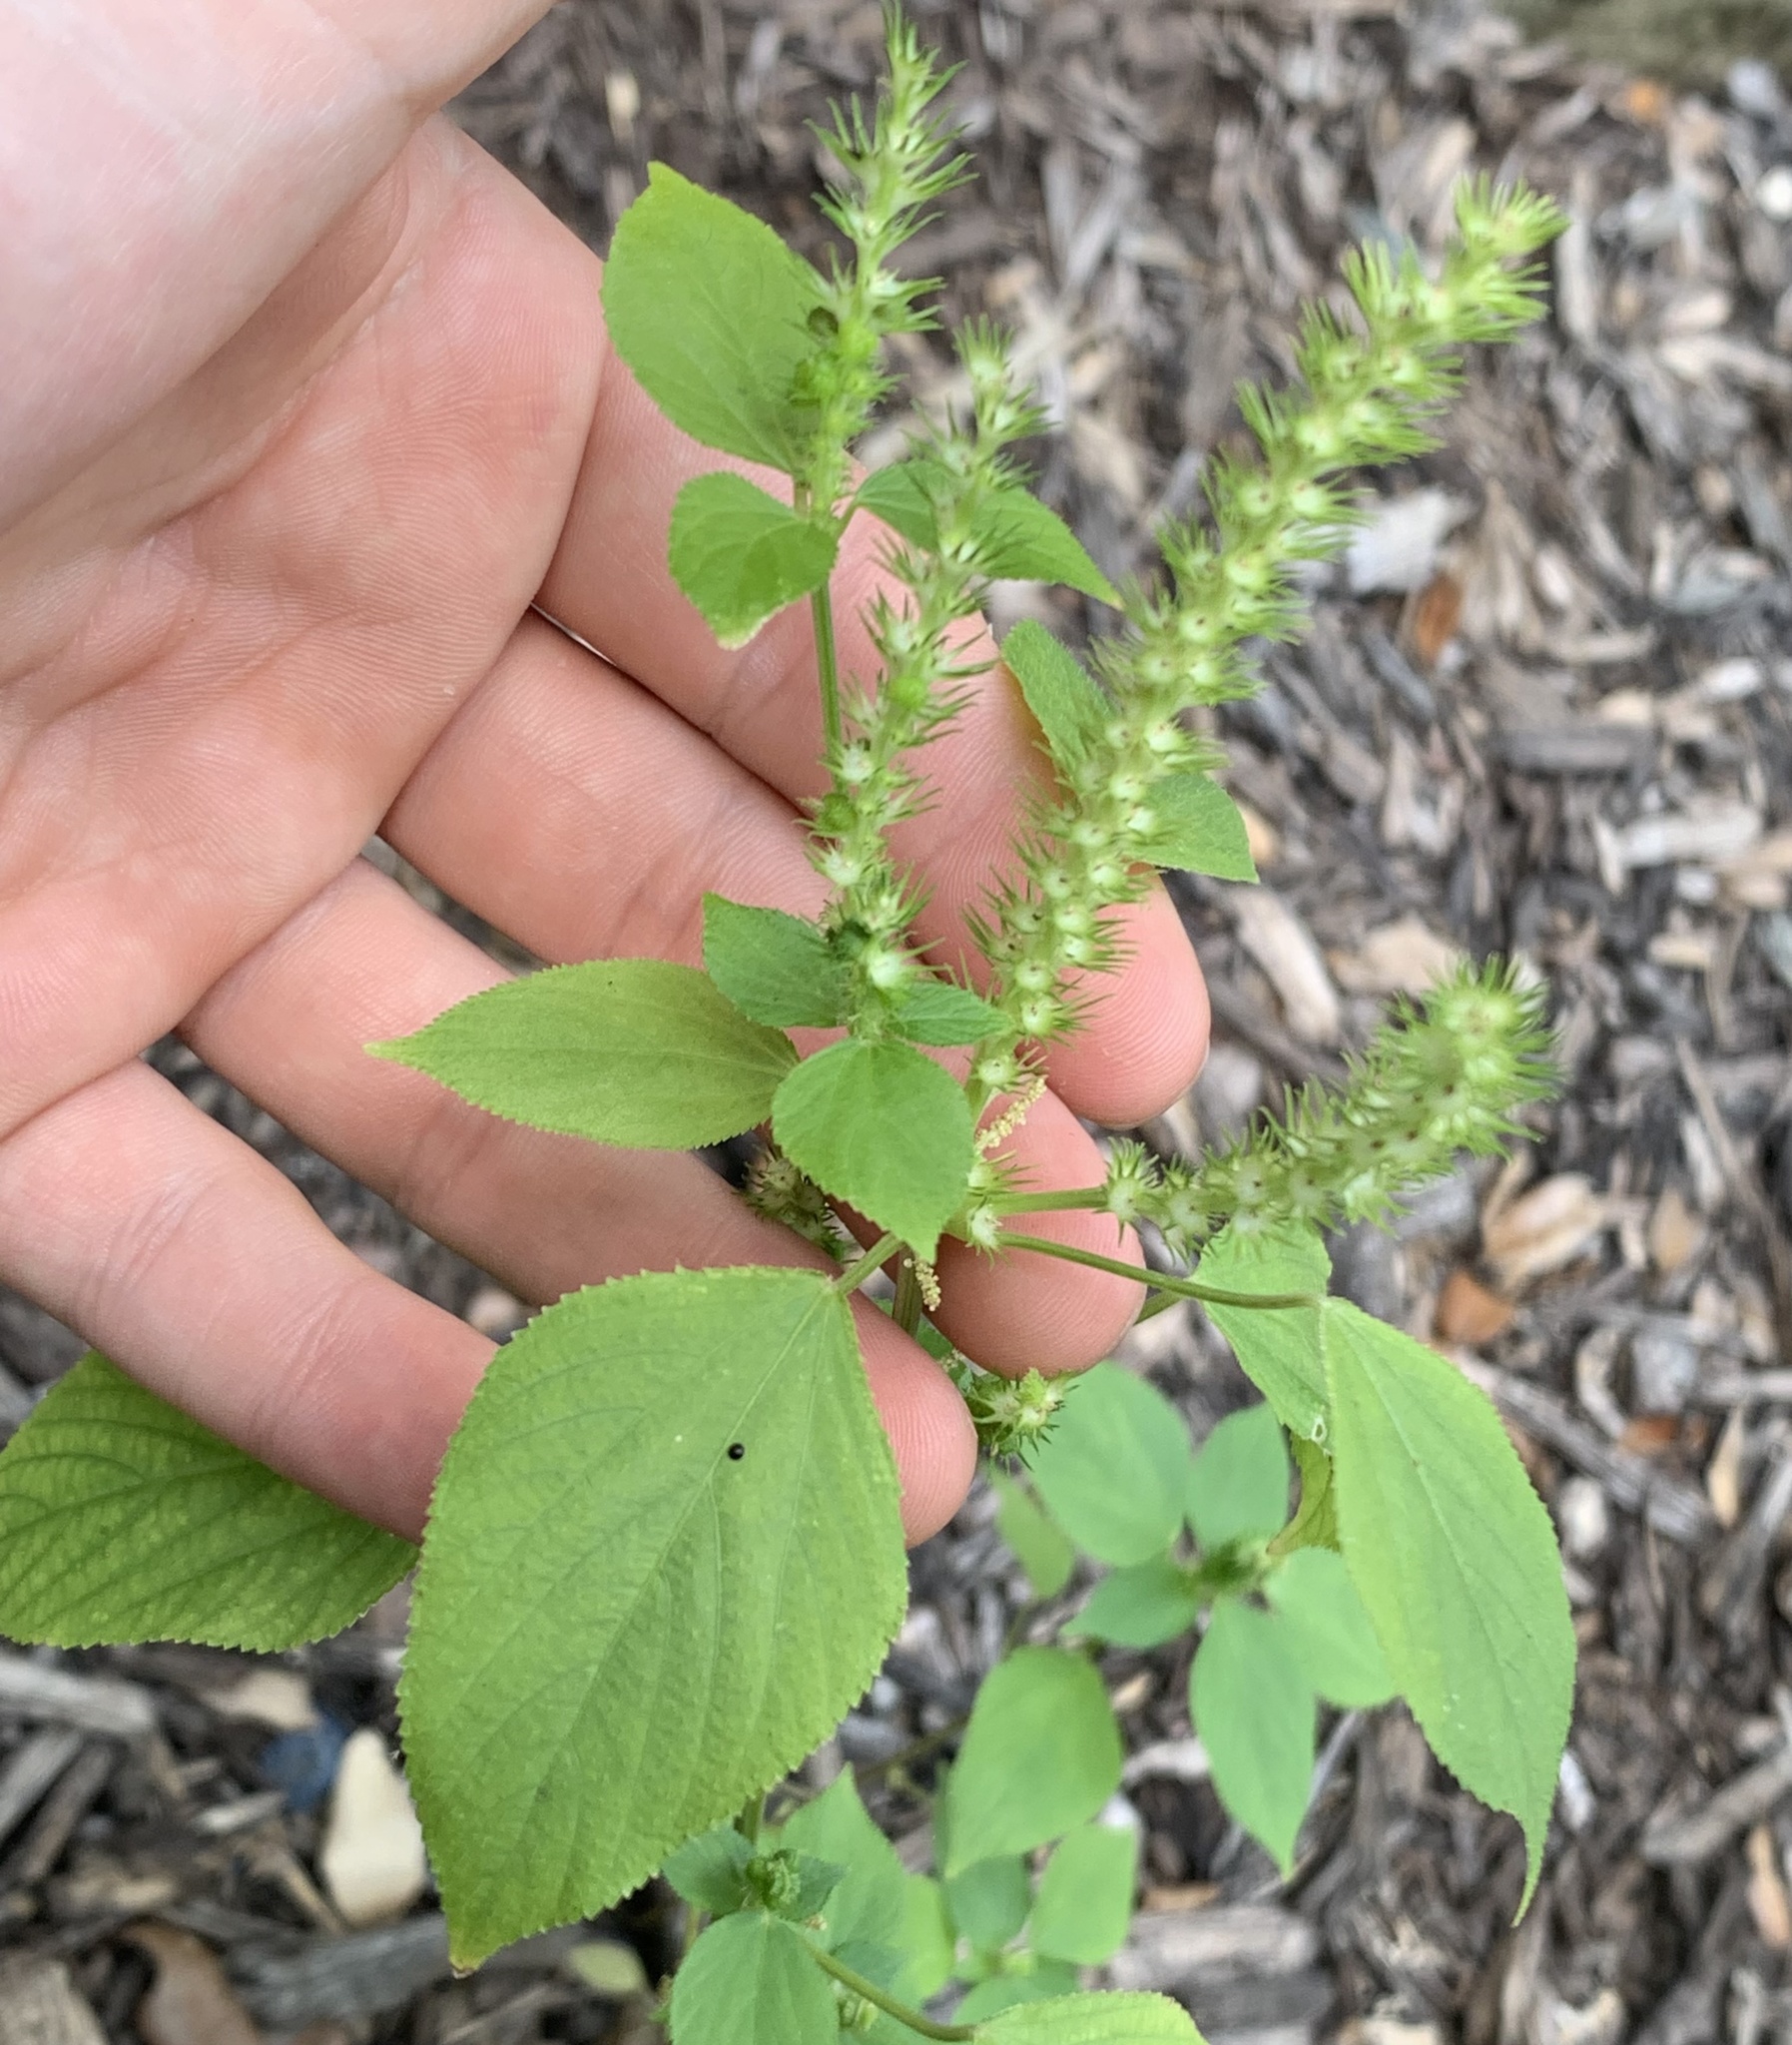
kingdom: Plantae
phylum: Tracheophyta
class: Magnoliopsida
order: Malpighiales
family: Euphorbiaceae
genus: Acalypha
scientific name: Acalypha setosa
